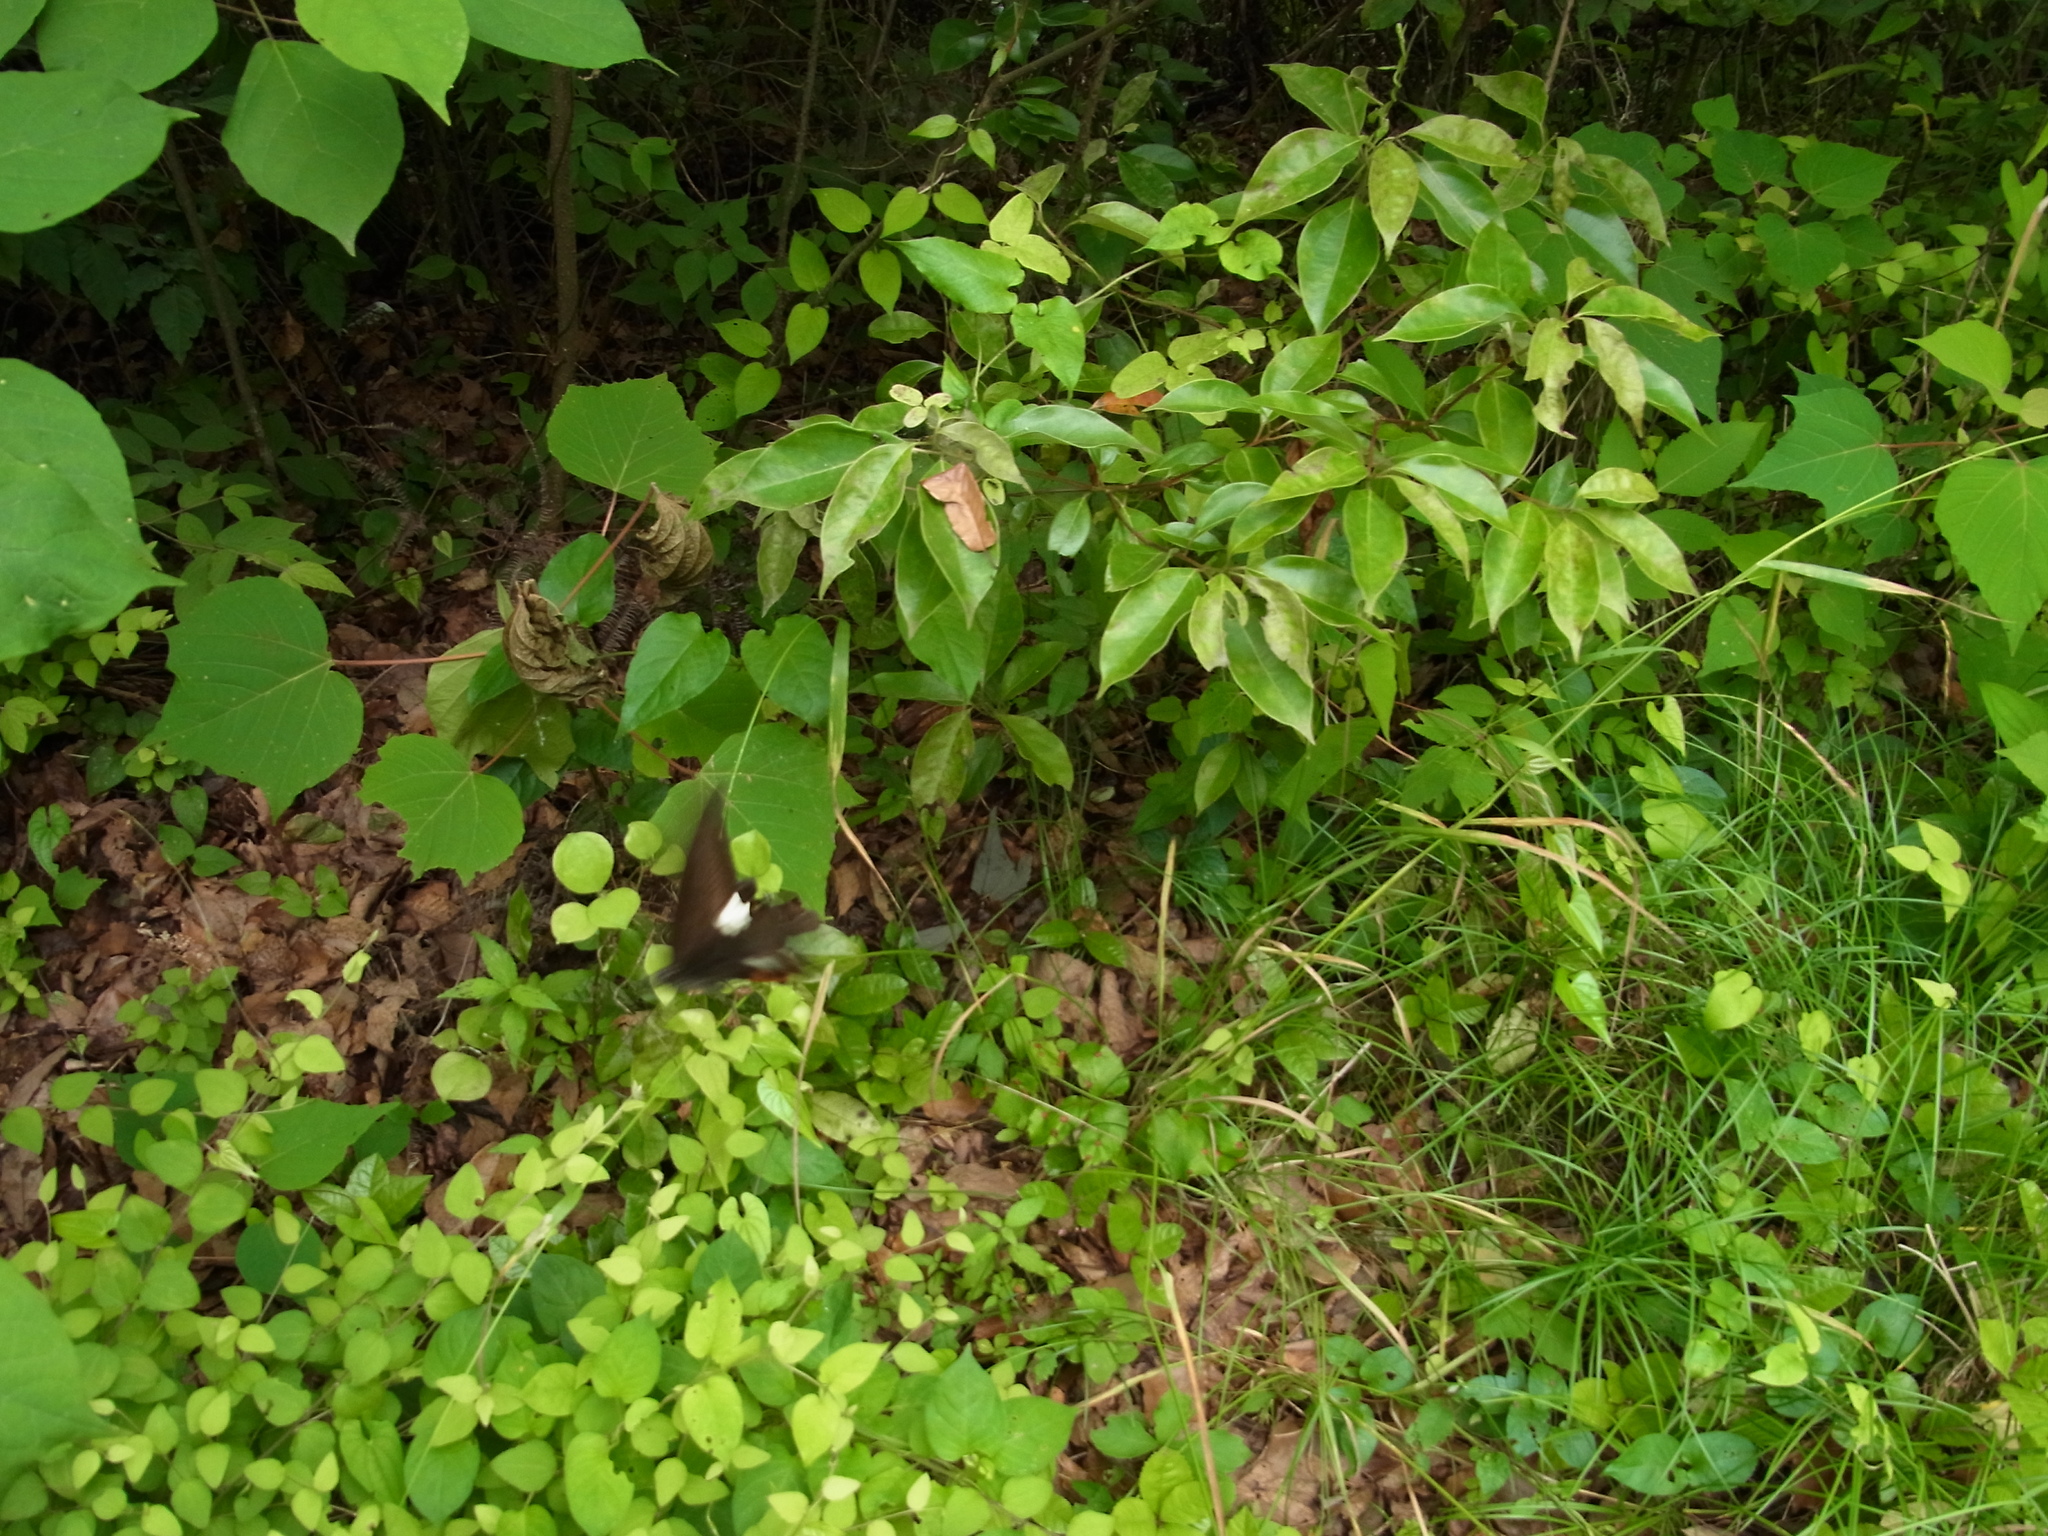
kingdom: Animalia
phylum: Arthropoda
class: Insecta
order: Lepidoptera
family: Papilionidae
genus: Papilio
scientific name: Papilio helenus
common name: Red helen
